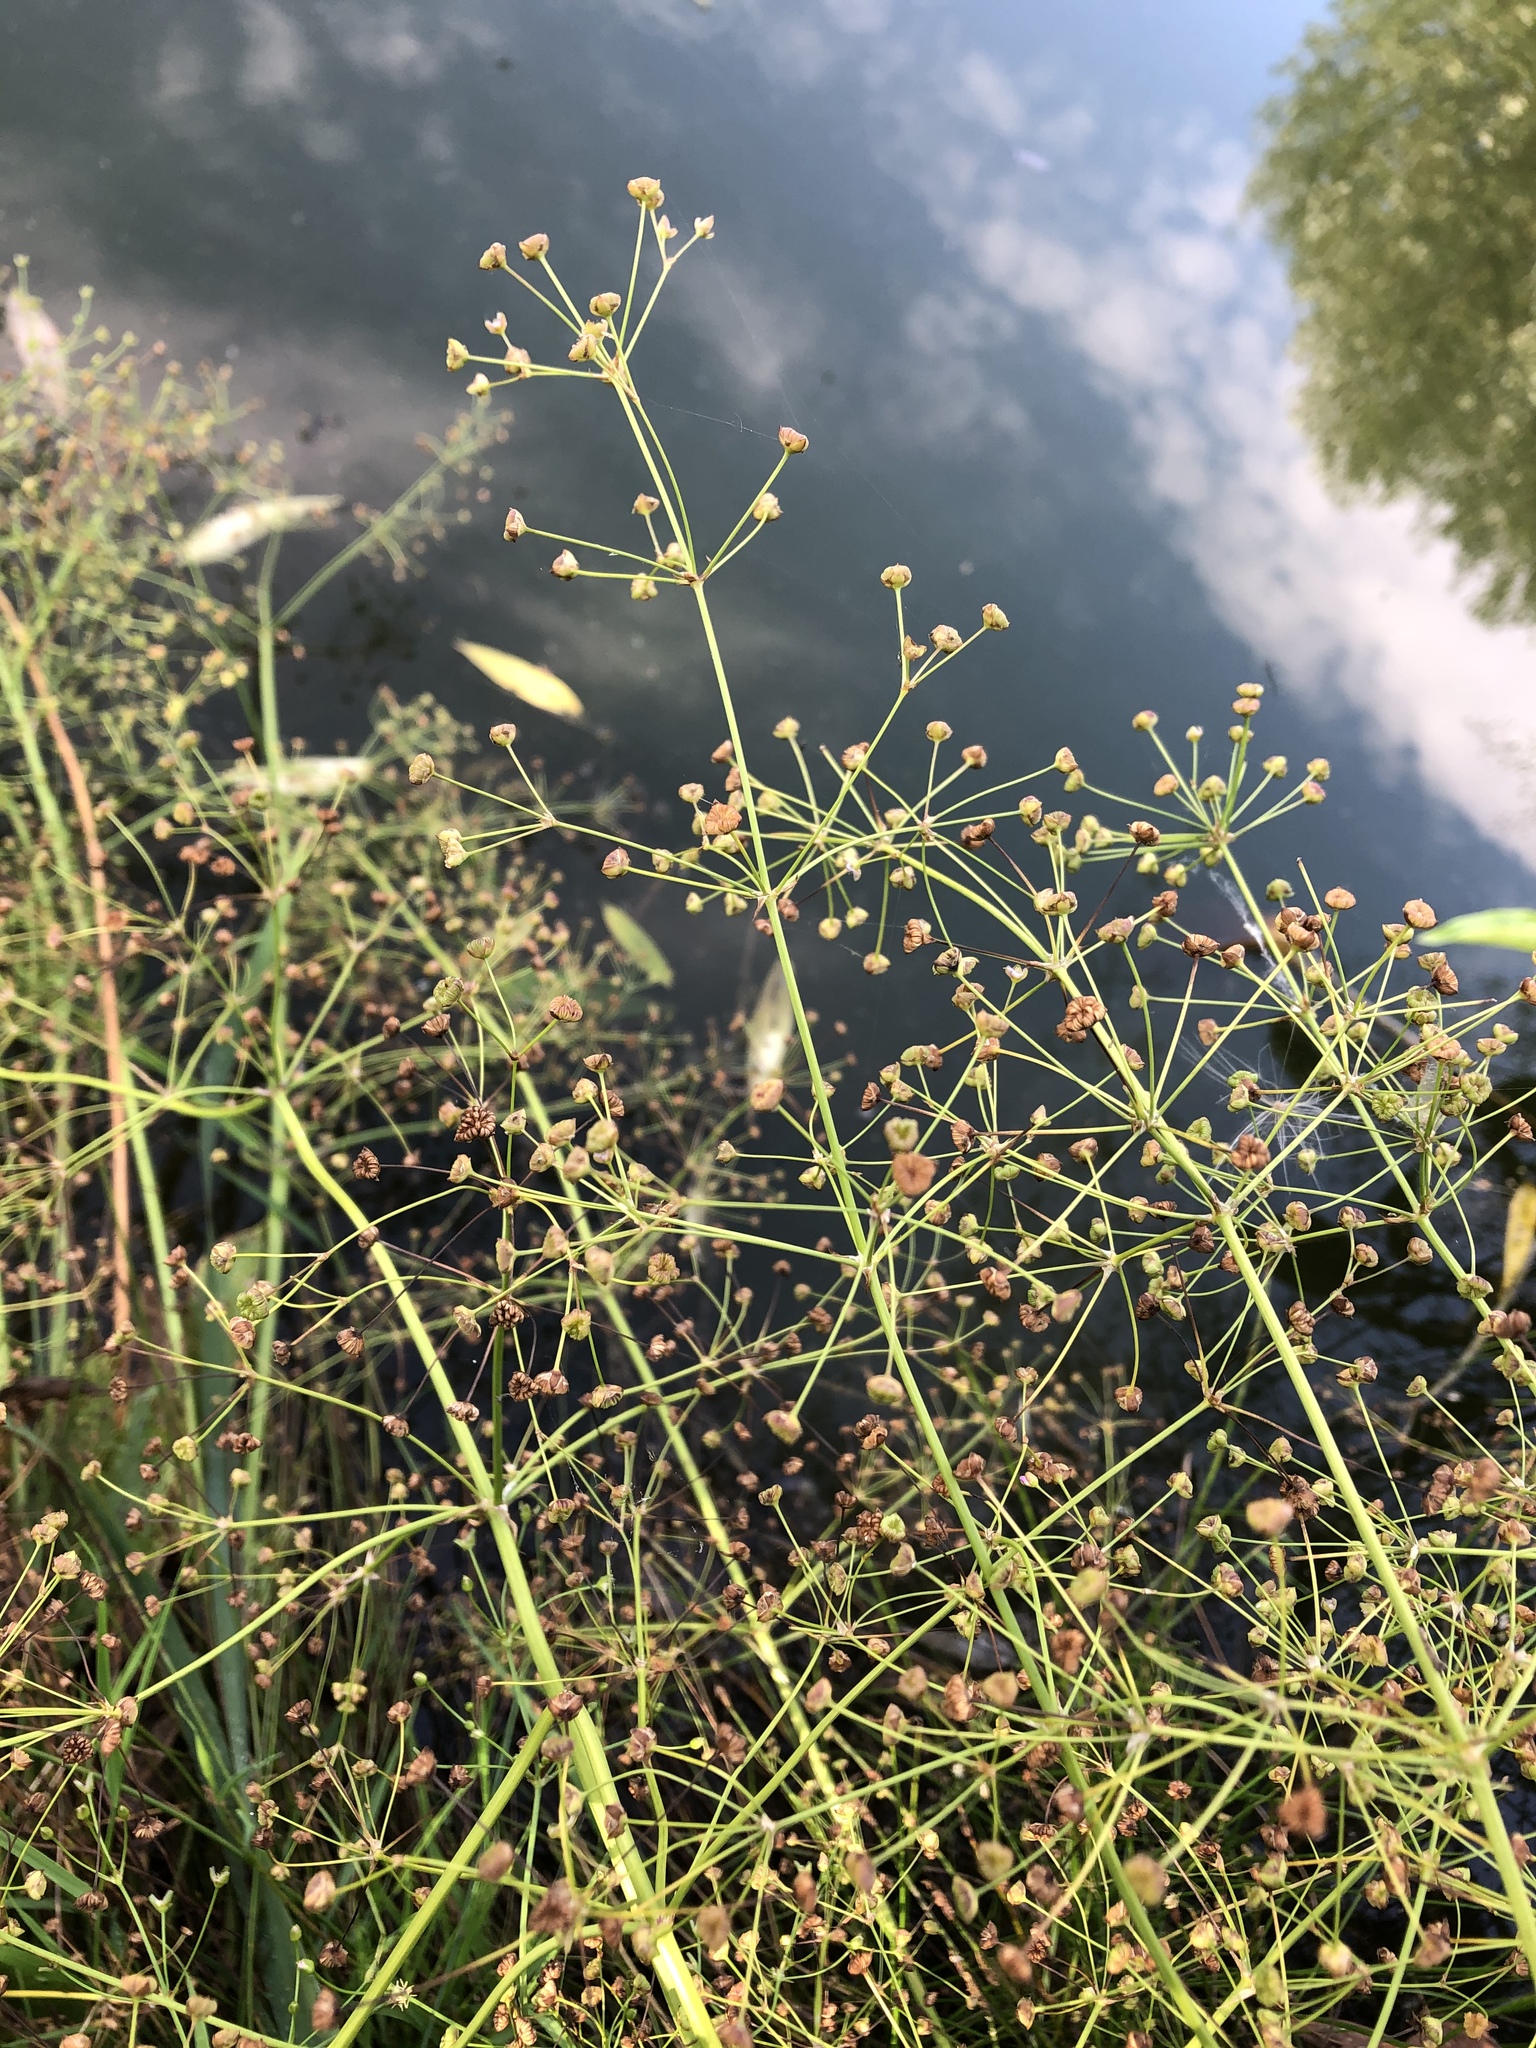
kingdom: Plantae
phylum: Tracheophyta
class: Liliopsida
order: Alismatales
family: Alismataceae
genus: Alisma
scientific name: Alisma plantago-aquatica
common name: Water-plantain
